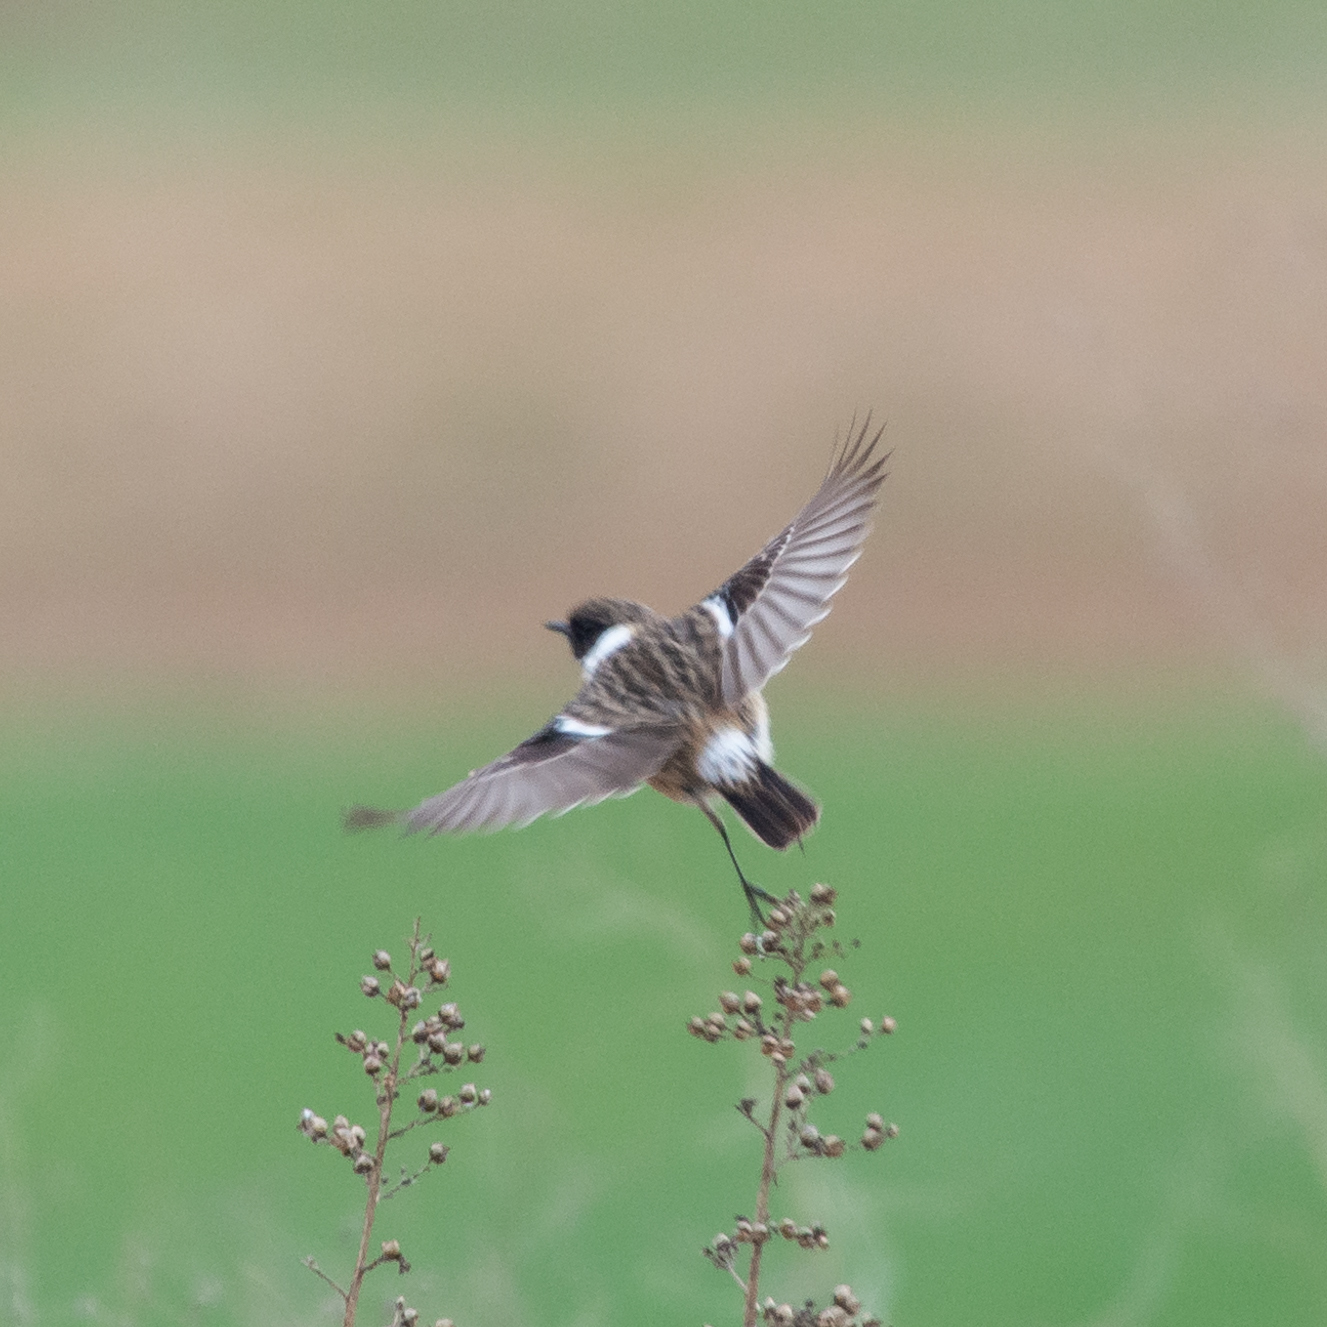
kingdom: Animalia
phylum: Chordata
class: Aves
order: Passeriformes
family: Muscicapidae
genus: Saxicola
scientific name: Saxicola rubicola
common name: European stonechat
